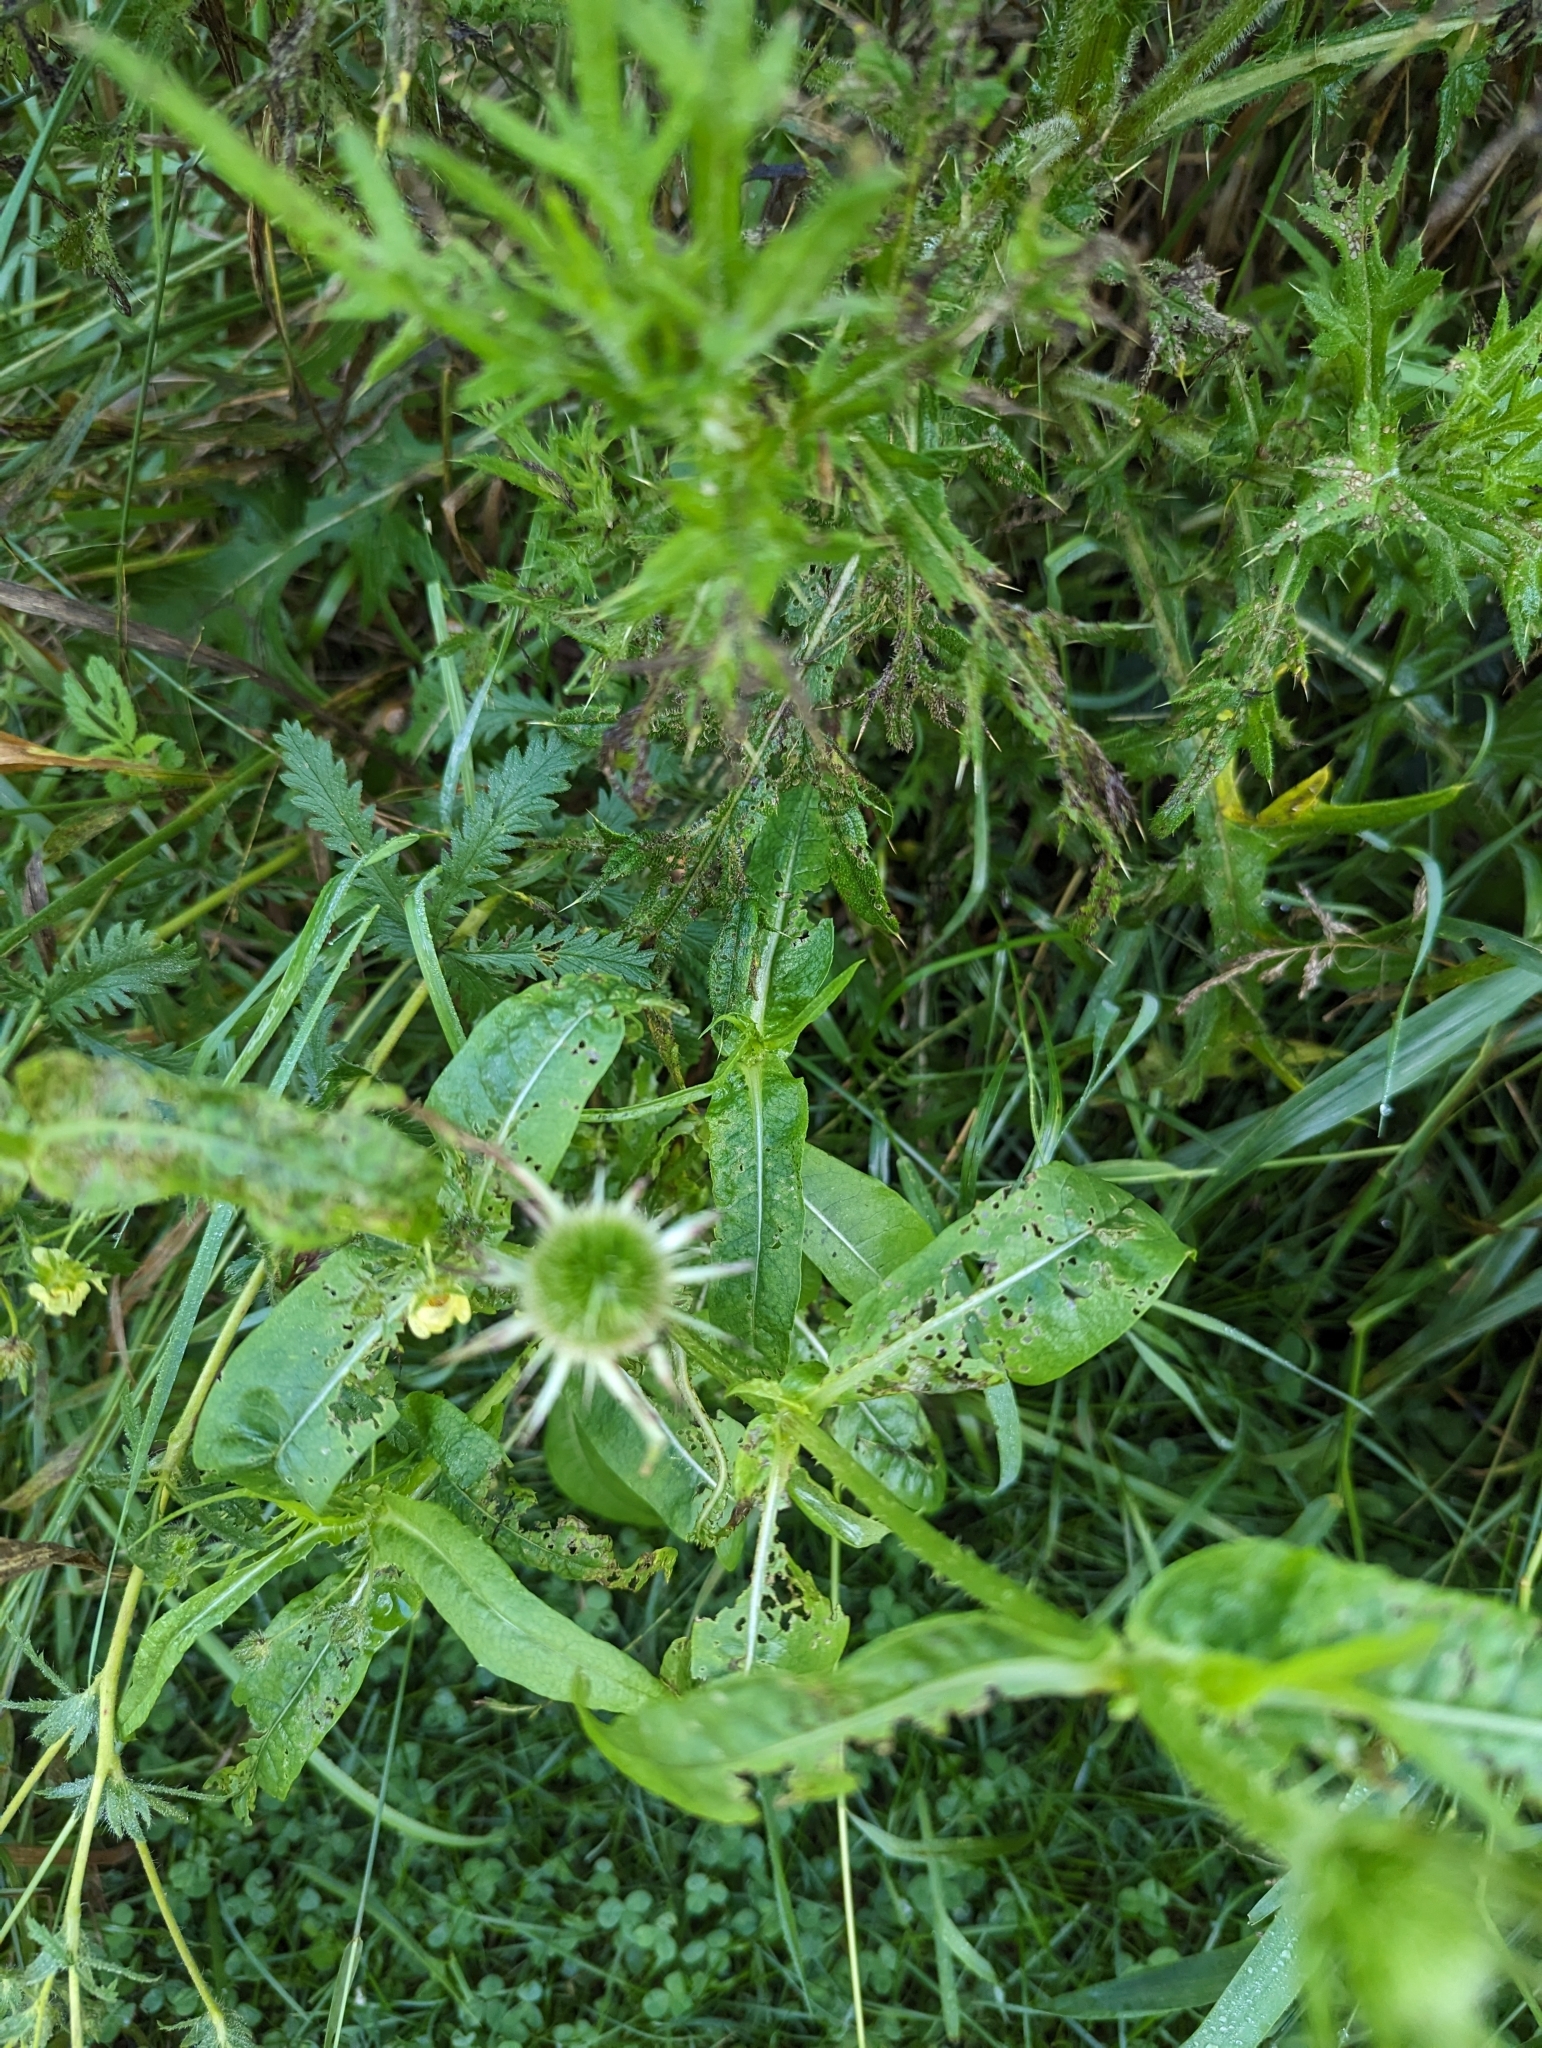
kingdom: Plantae
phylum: Tracheophyta
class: Magnoliopsida
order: Dipsacales
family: Caprifoliaceae
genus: Dipsacus
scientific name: Dipsacus fullonum
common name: Teasel
